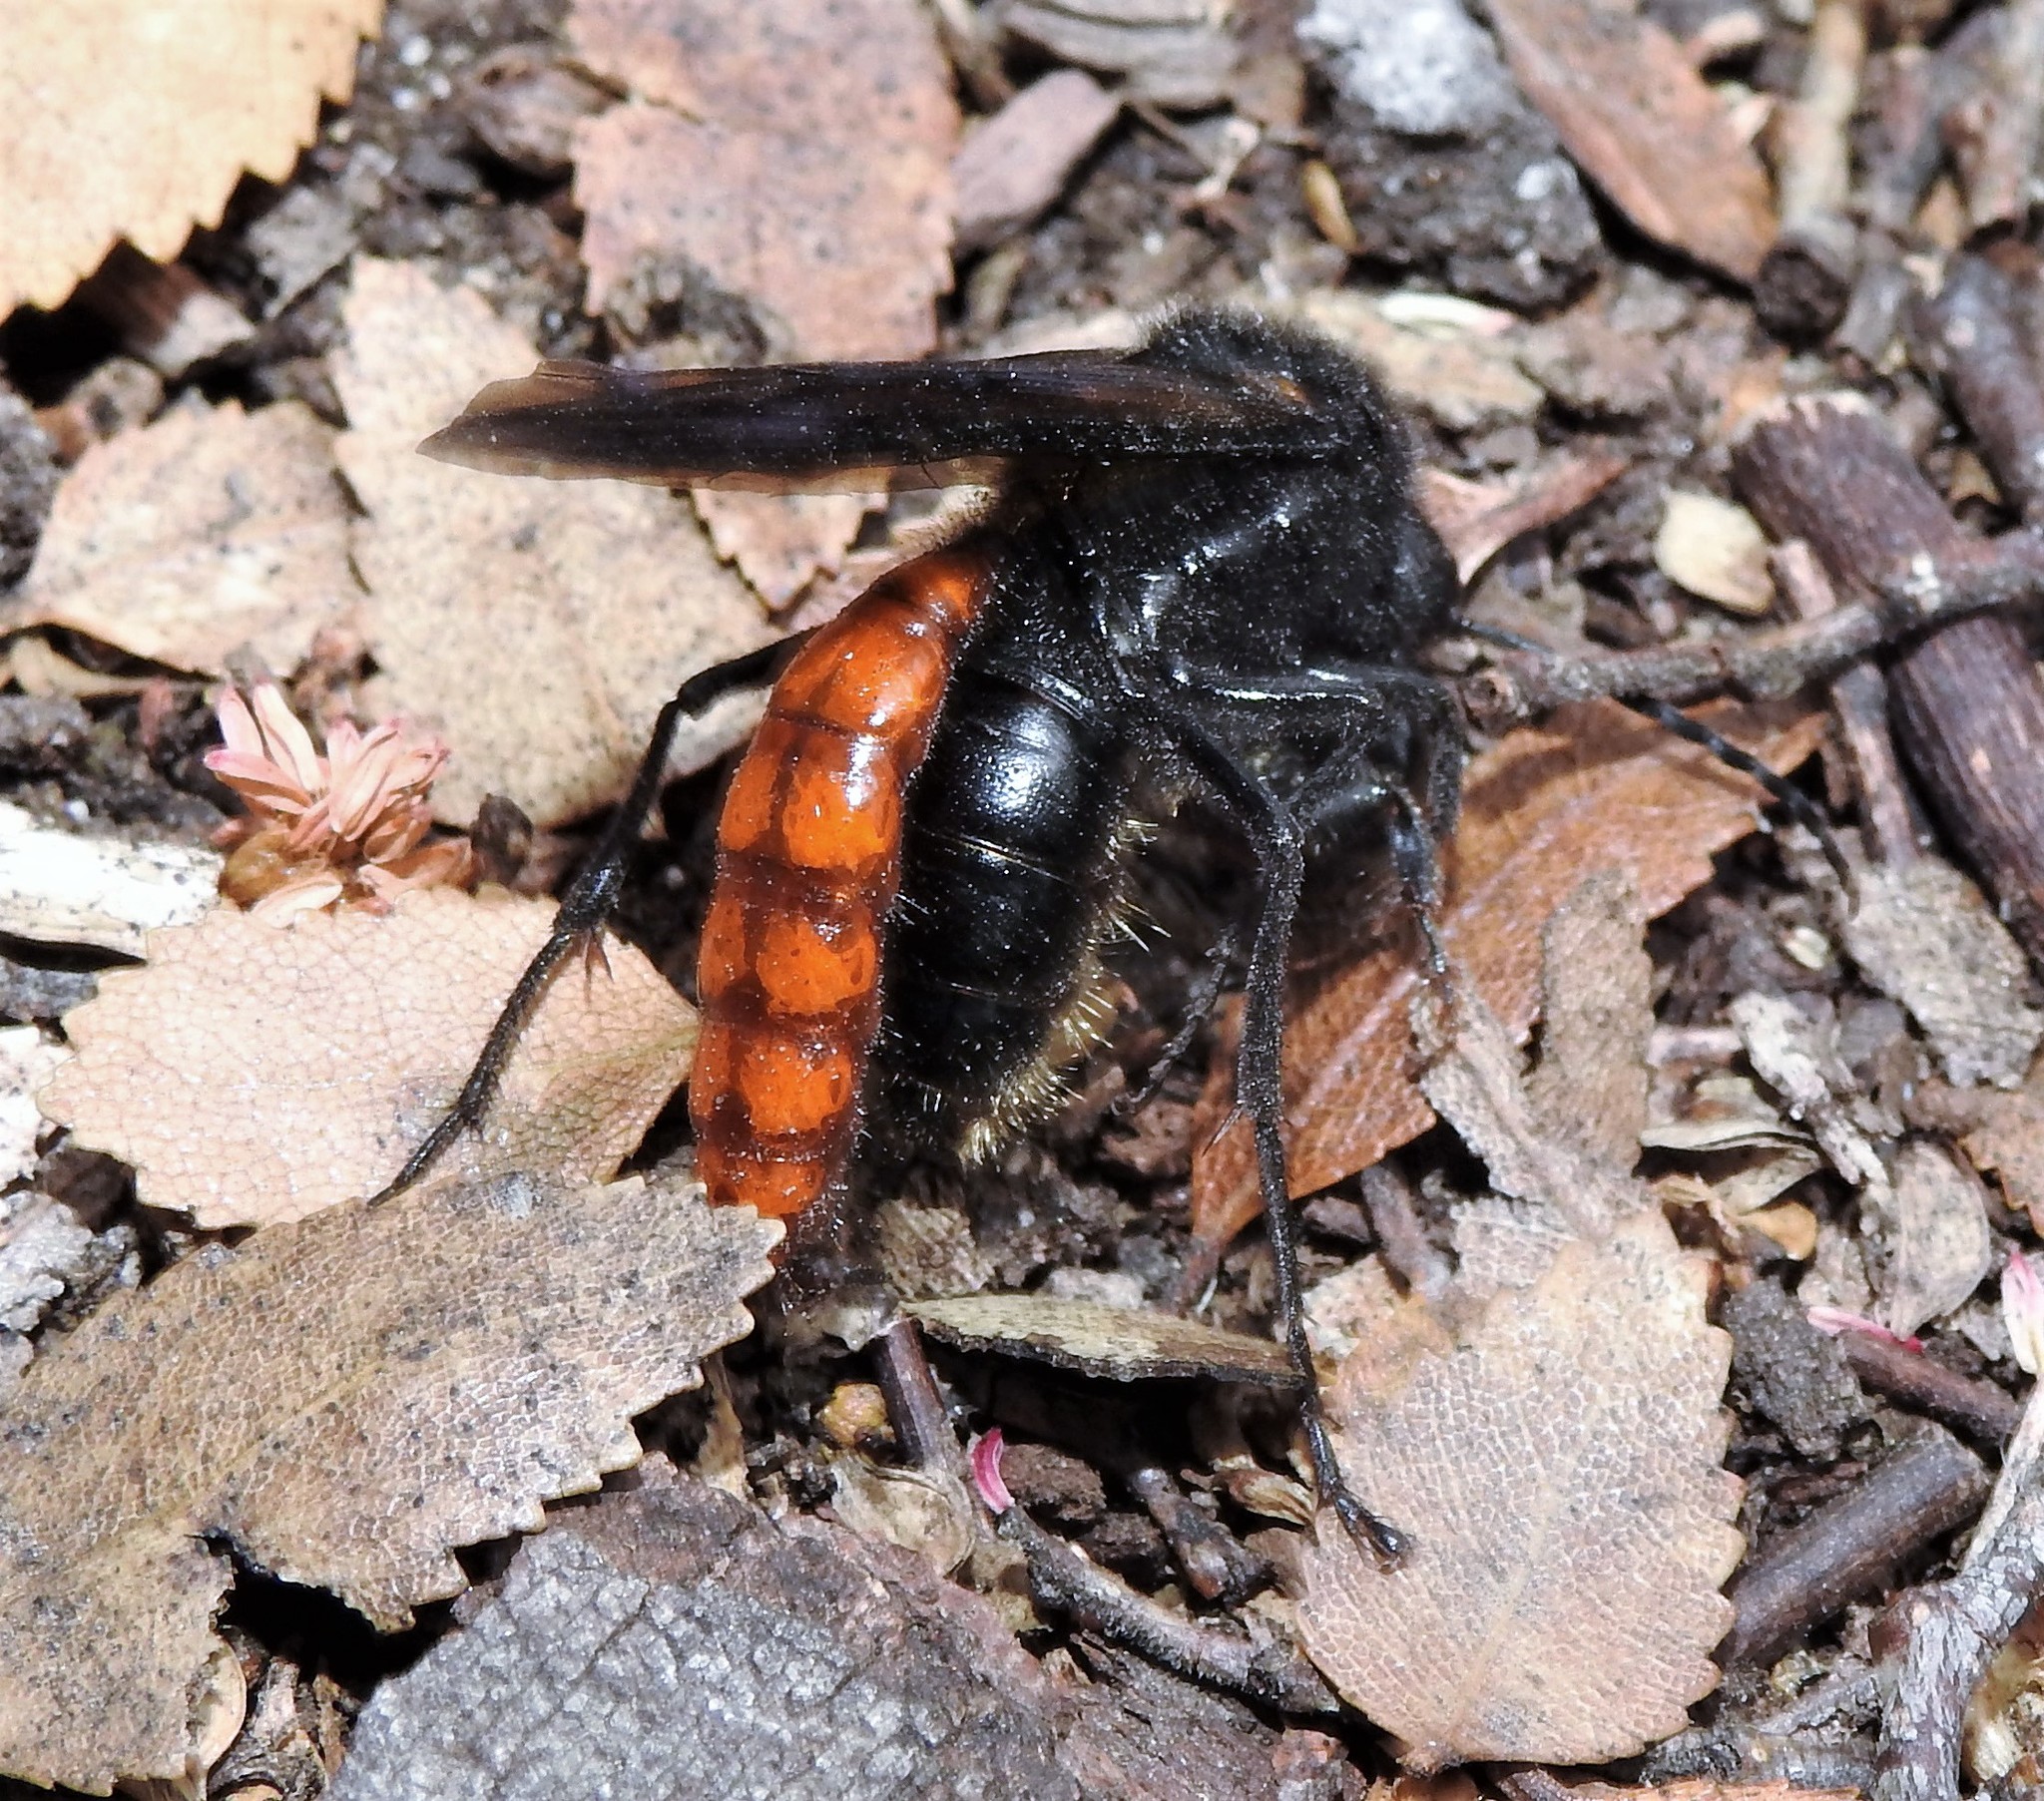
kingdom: Animalia
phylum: Arthropoda
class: Insecta
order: Hymenoptera
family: Tiphiidae
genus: Elaphroptera
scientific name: Elaphroptera
